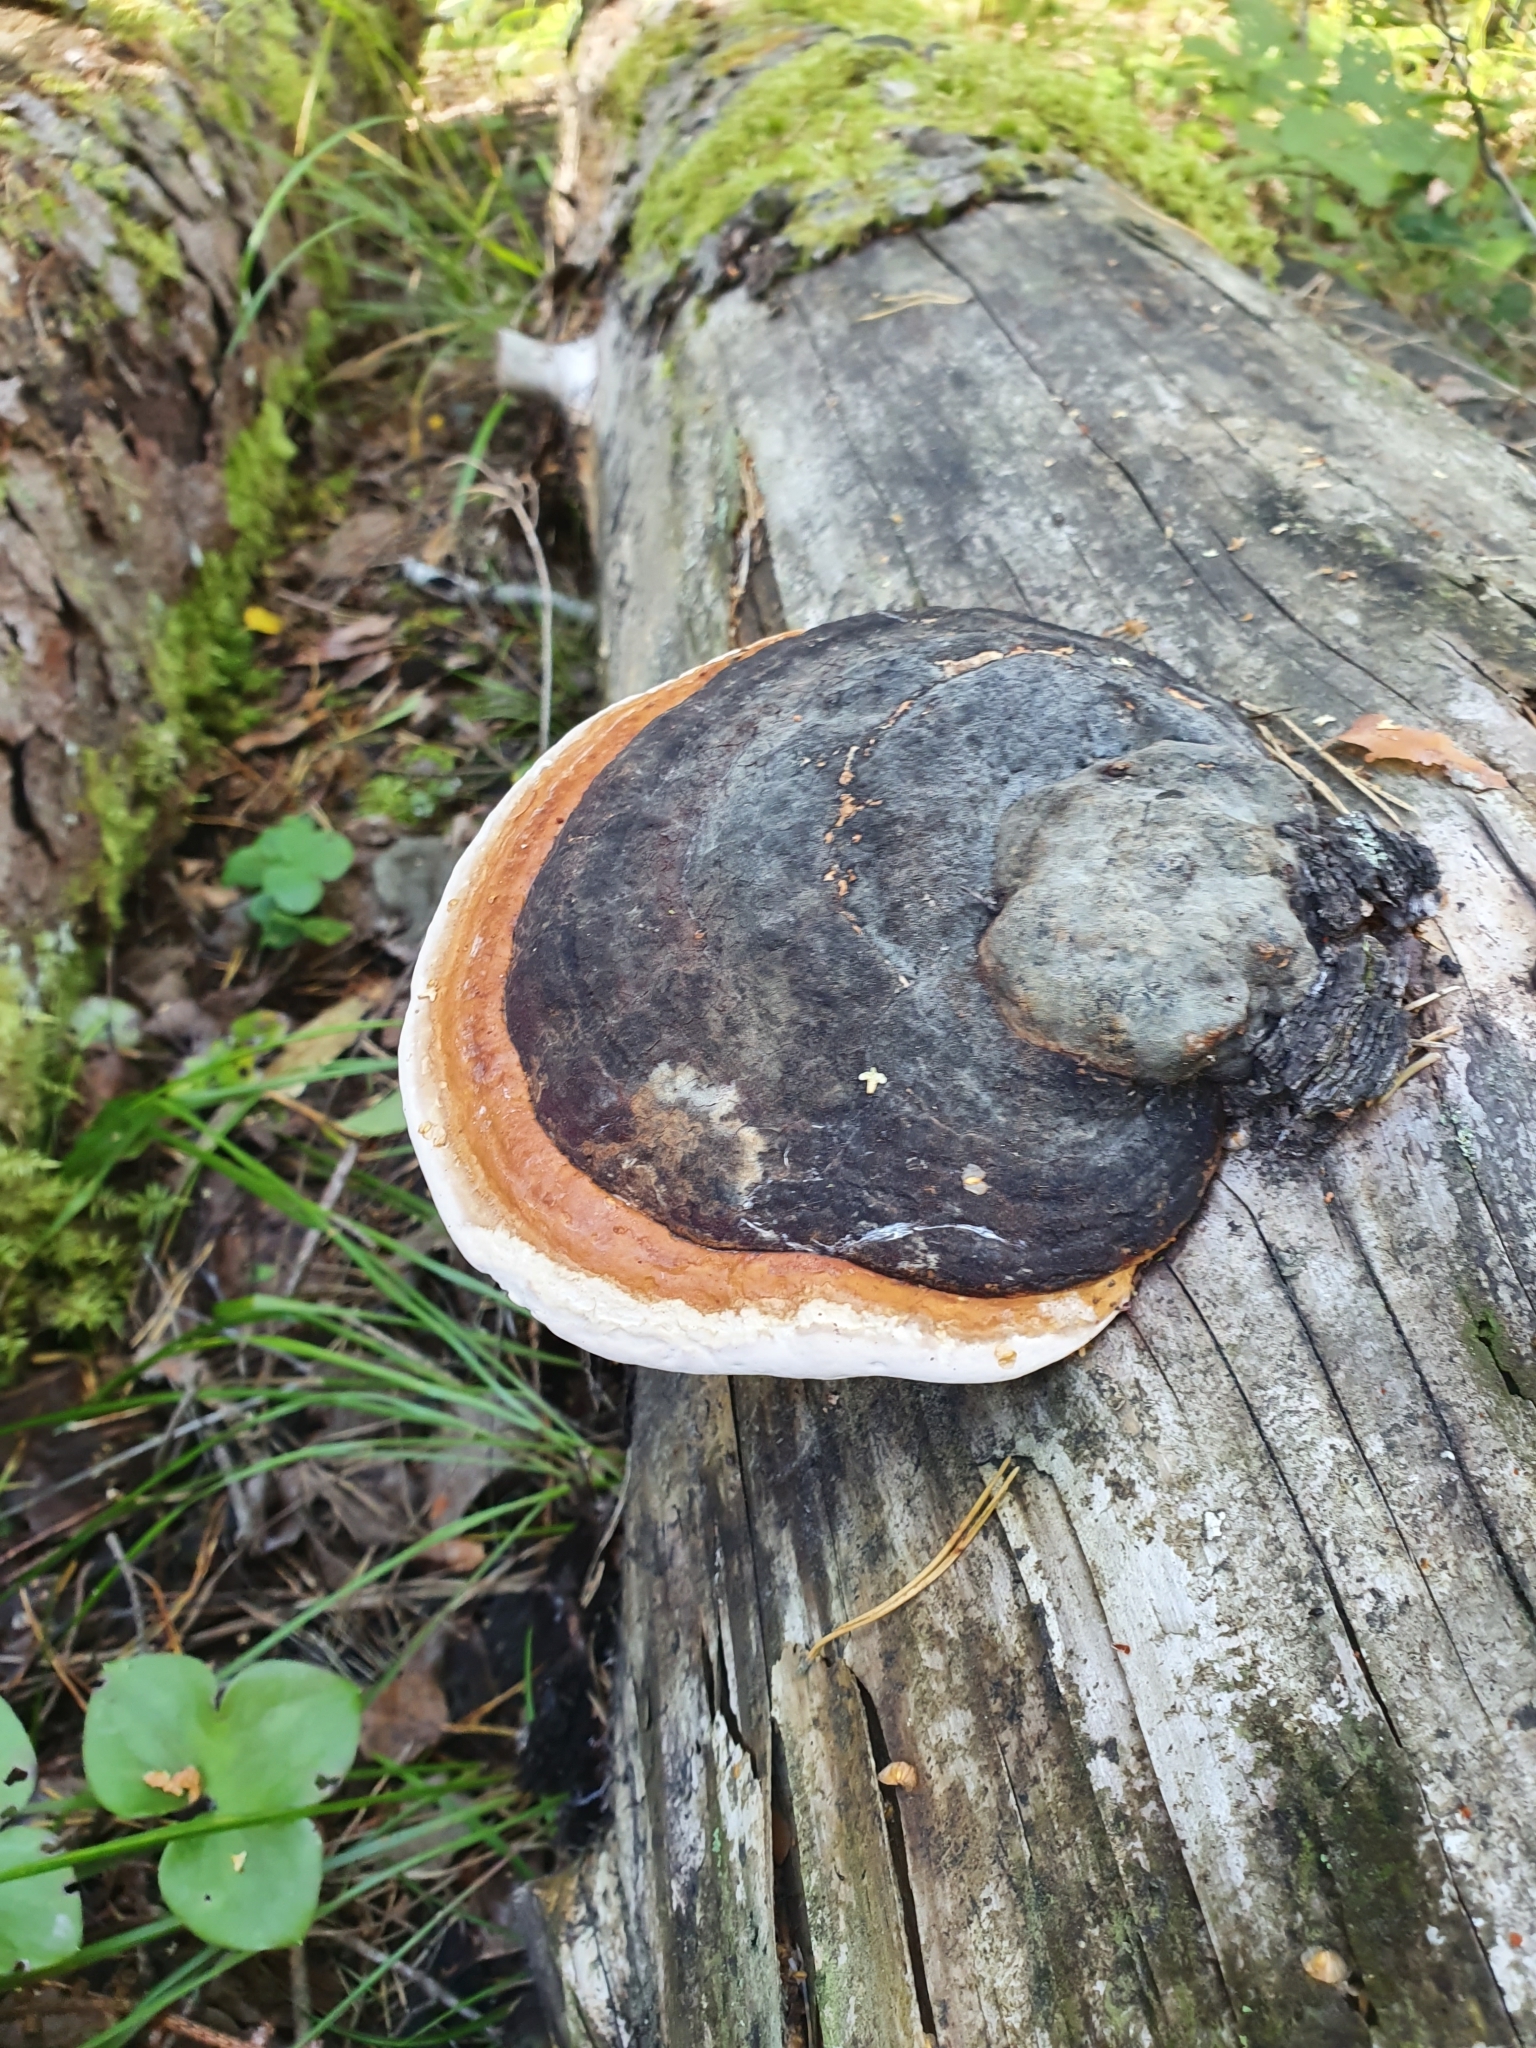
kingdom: Fungi
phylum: Basidiomycota
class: Agaricomycetes
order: Polyporales
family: Fomitopsidaceae
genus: Fomitopsis
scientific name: Fomitopsis pinicola
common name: Red-belted bracket
